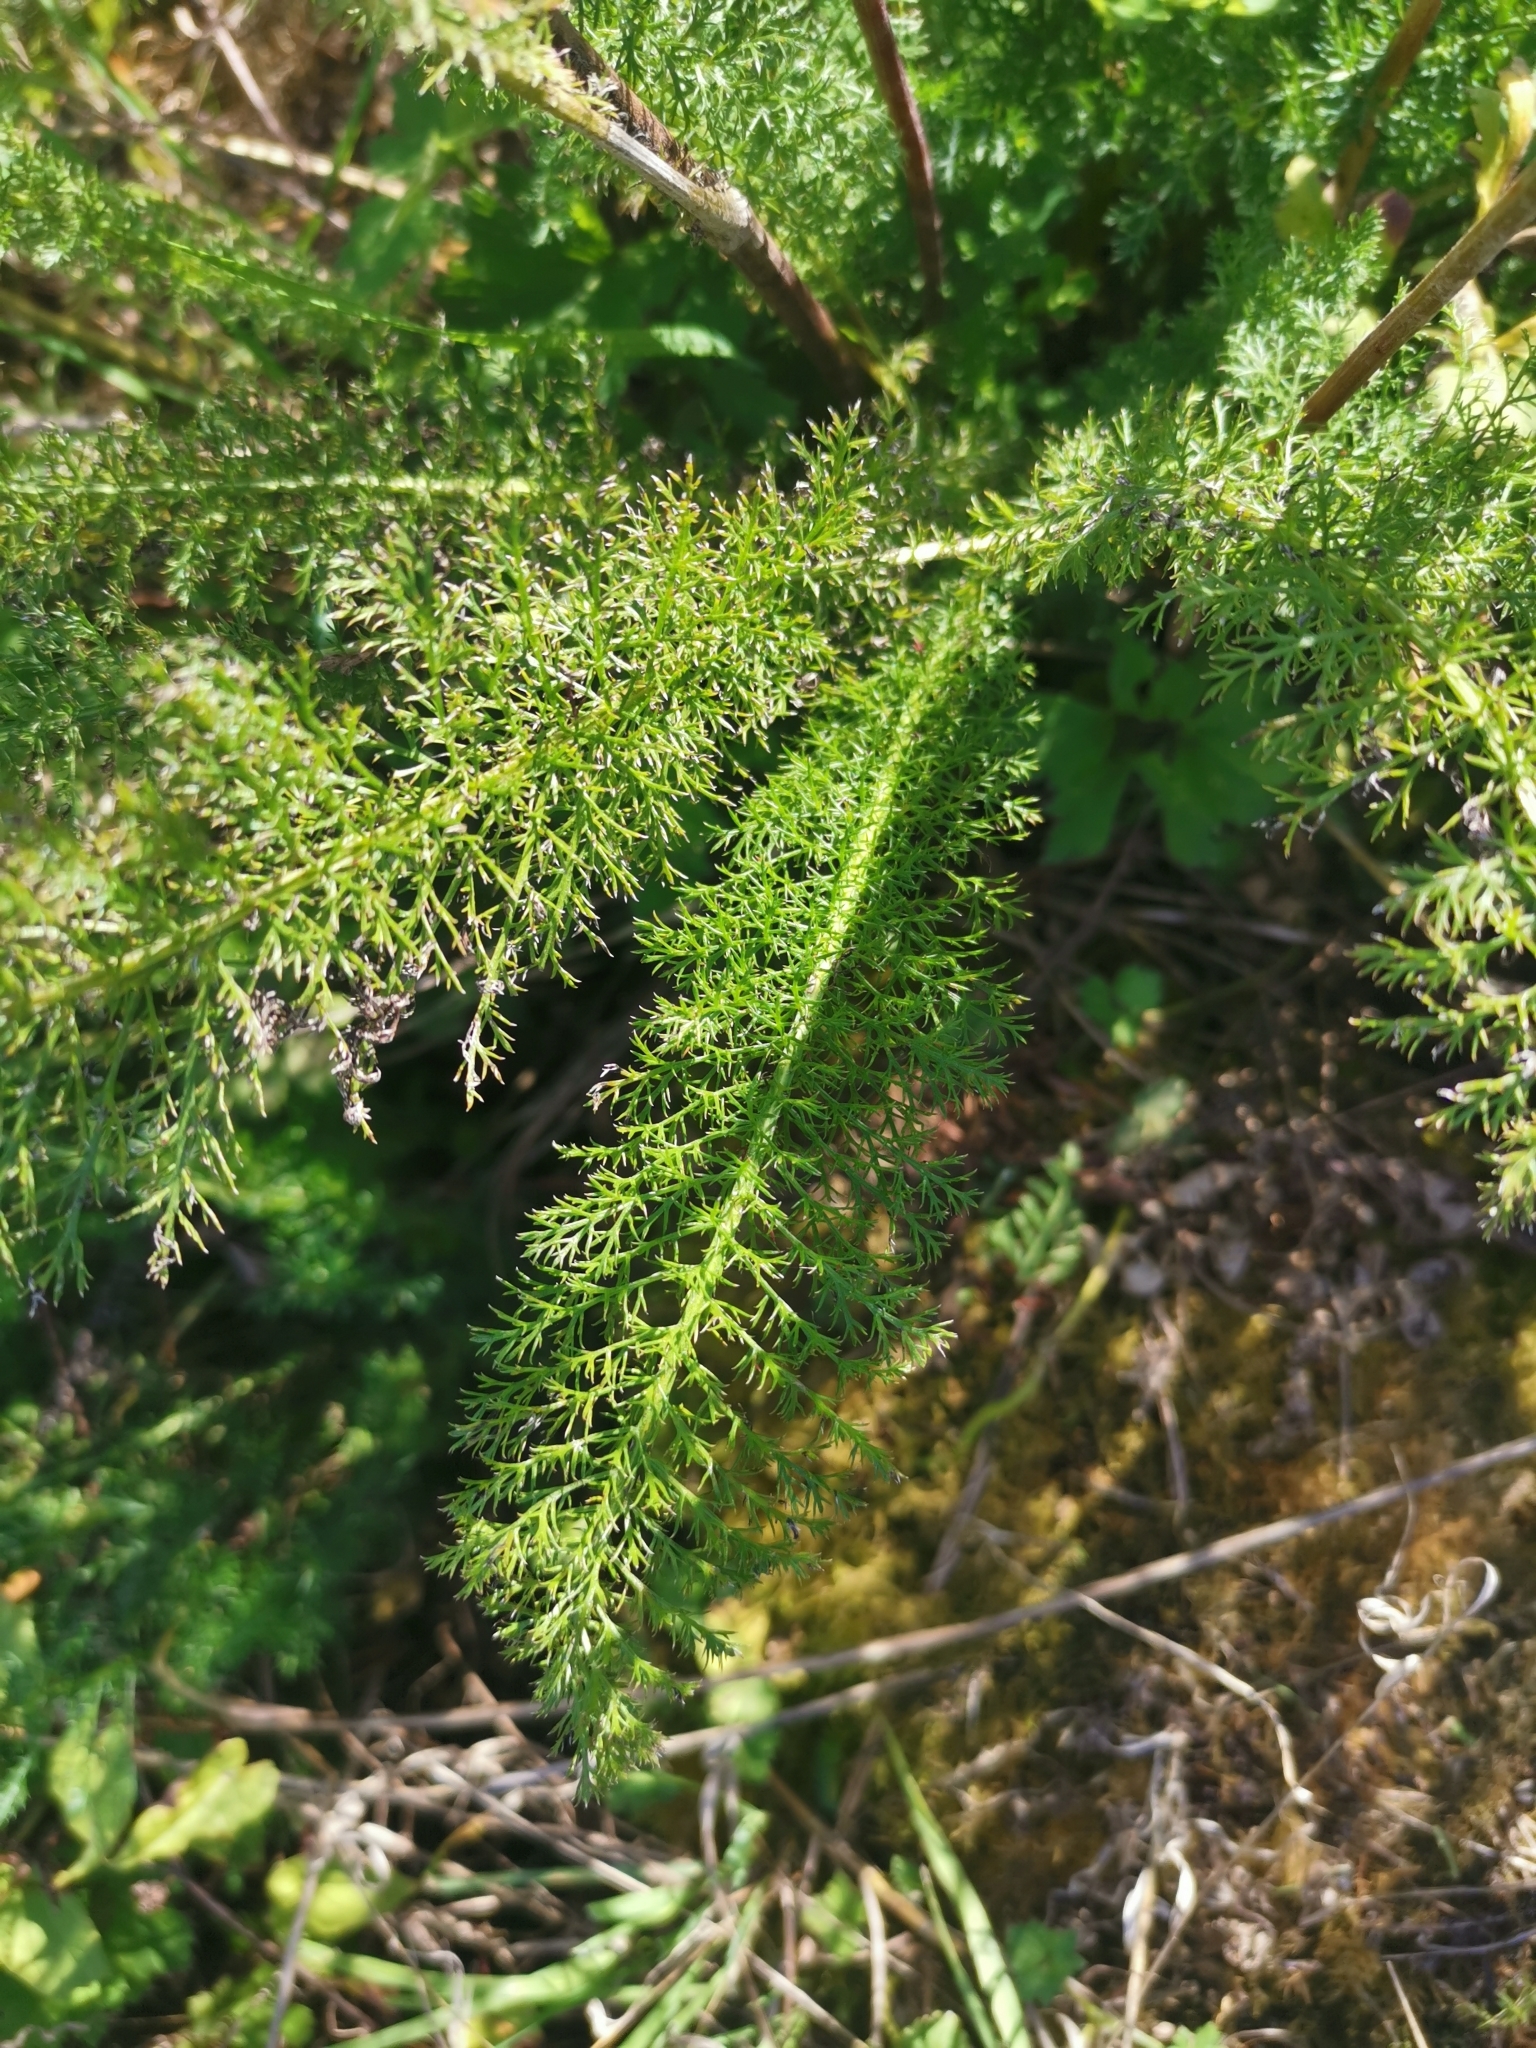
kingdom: Plantae
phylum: Tracheophyta
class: Magnoliopsida
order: Asterales
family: Asteraceae
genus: Achillea
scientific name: Achillea millefolium
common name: Yarrow
